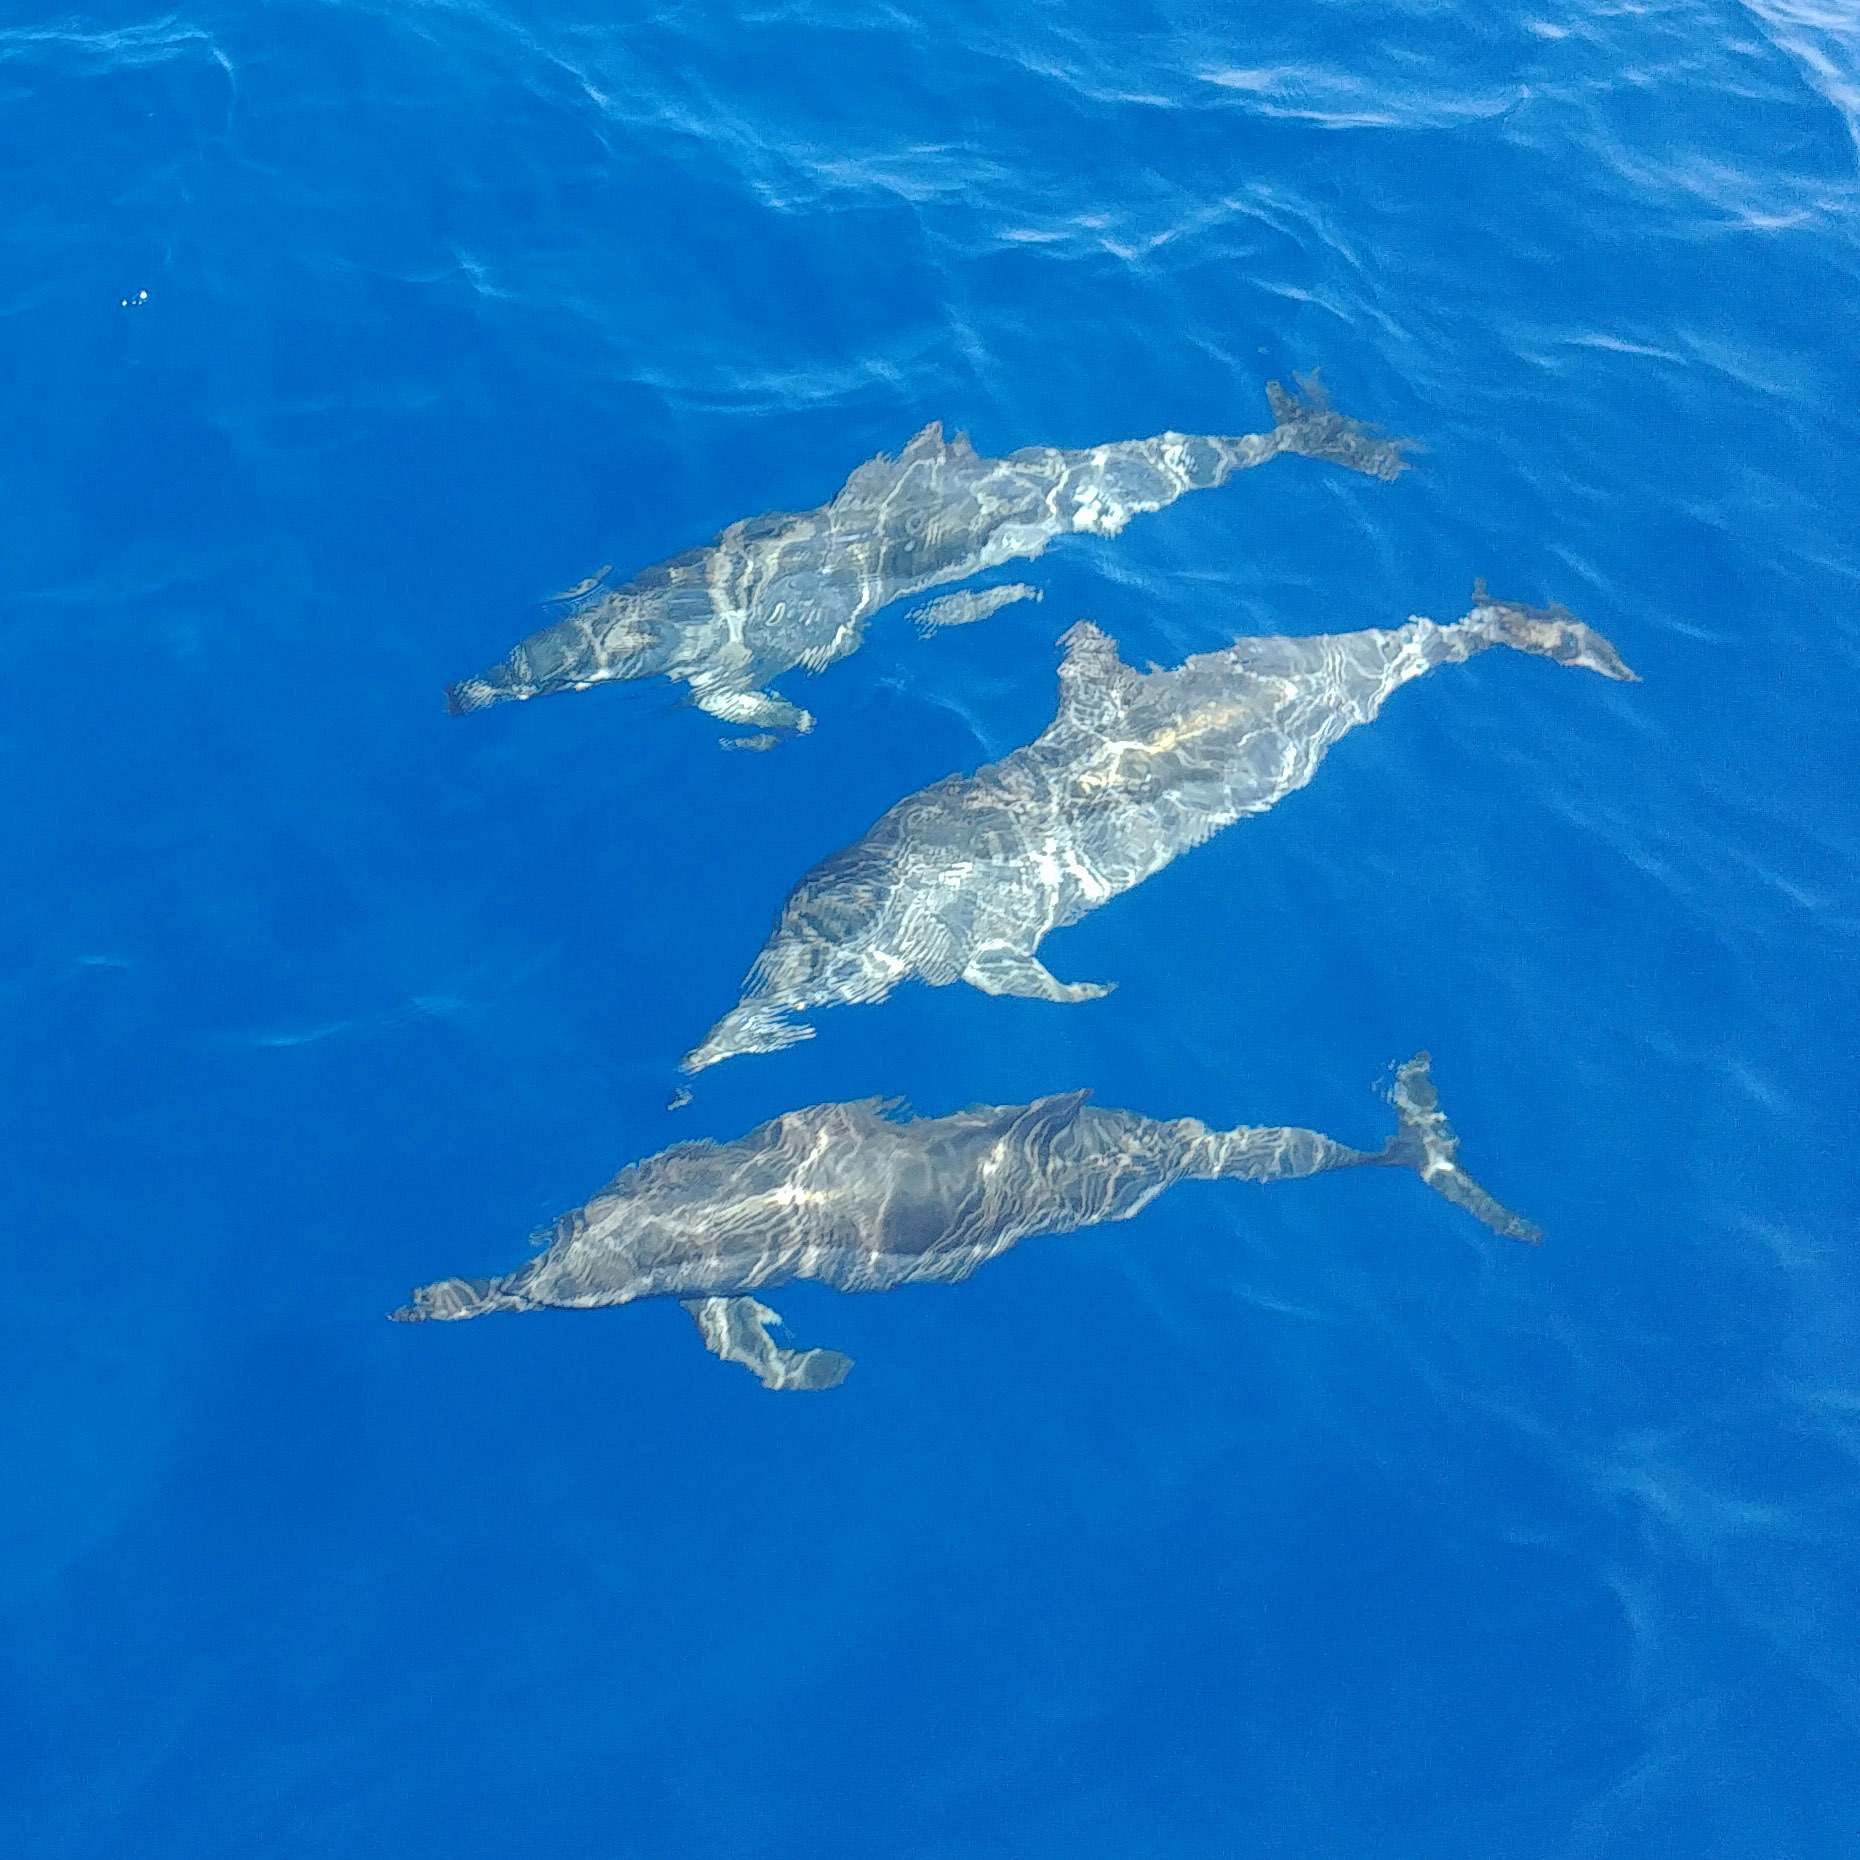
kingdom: Animalia
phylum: Chordata
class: Mammalia
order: Cetacea
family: Delphinidae
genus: Stenella
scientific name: Stenella longirostris
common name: Spinner dolphin
